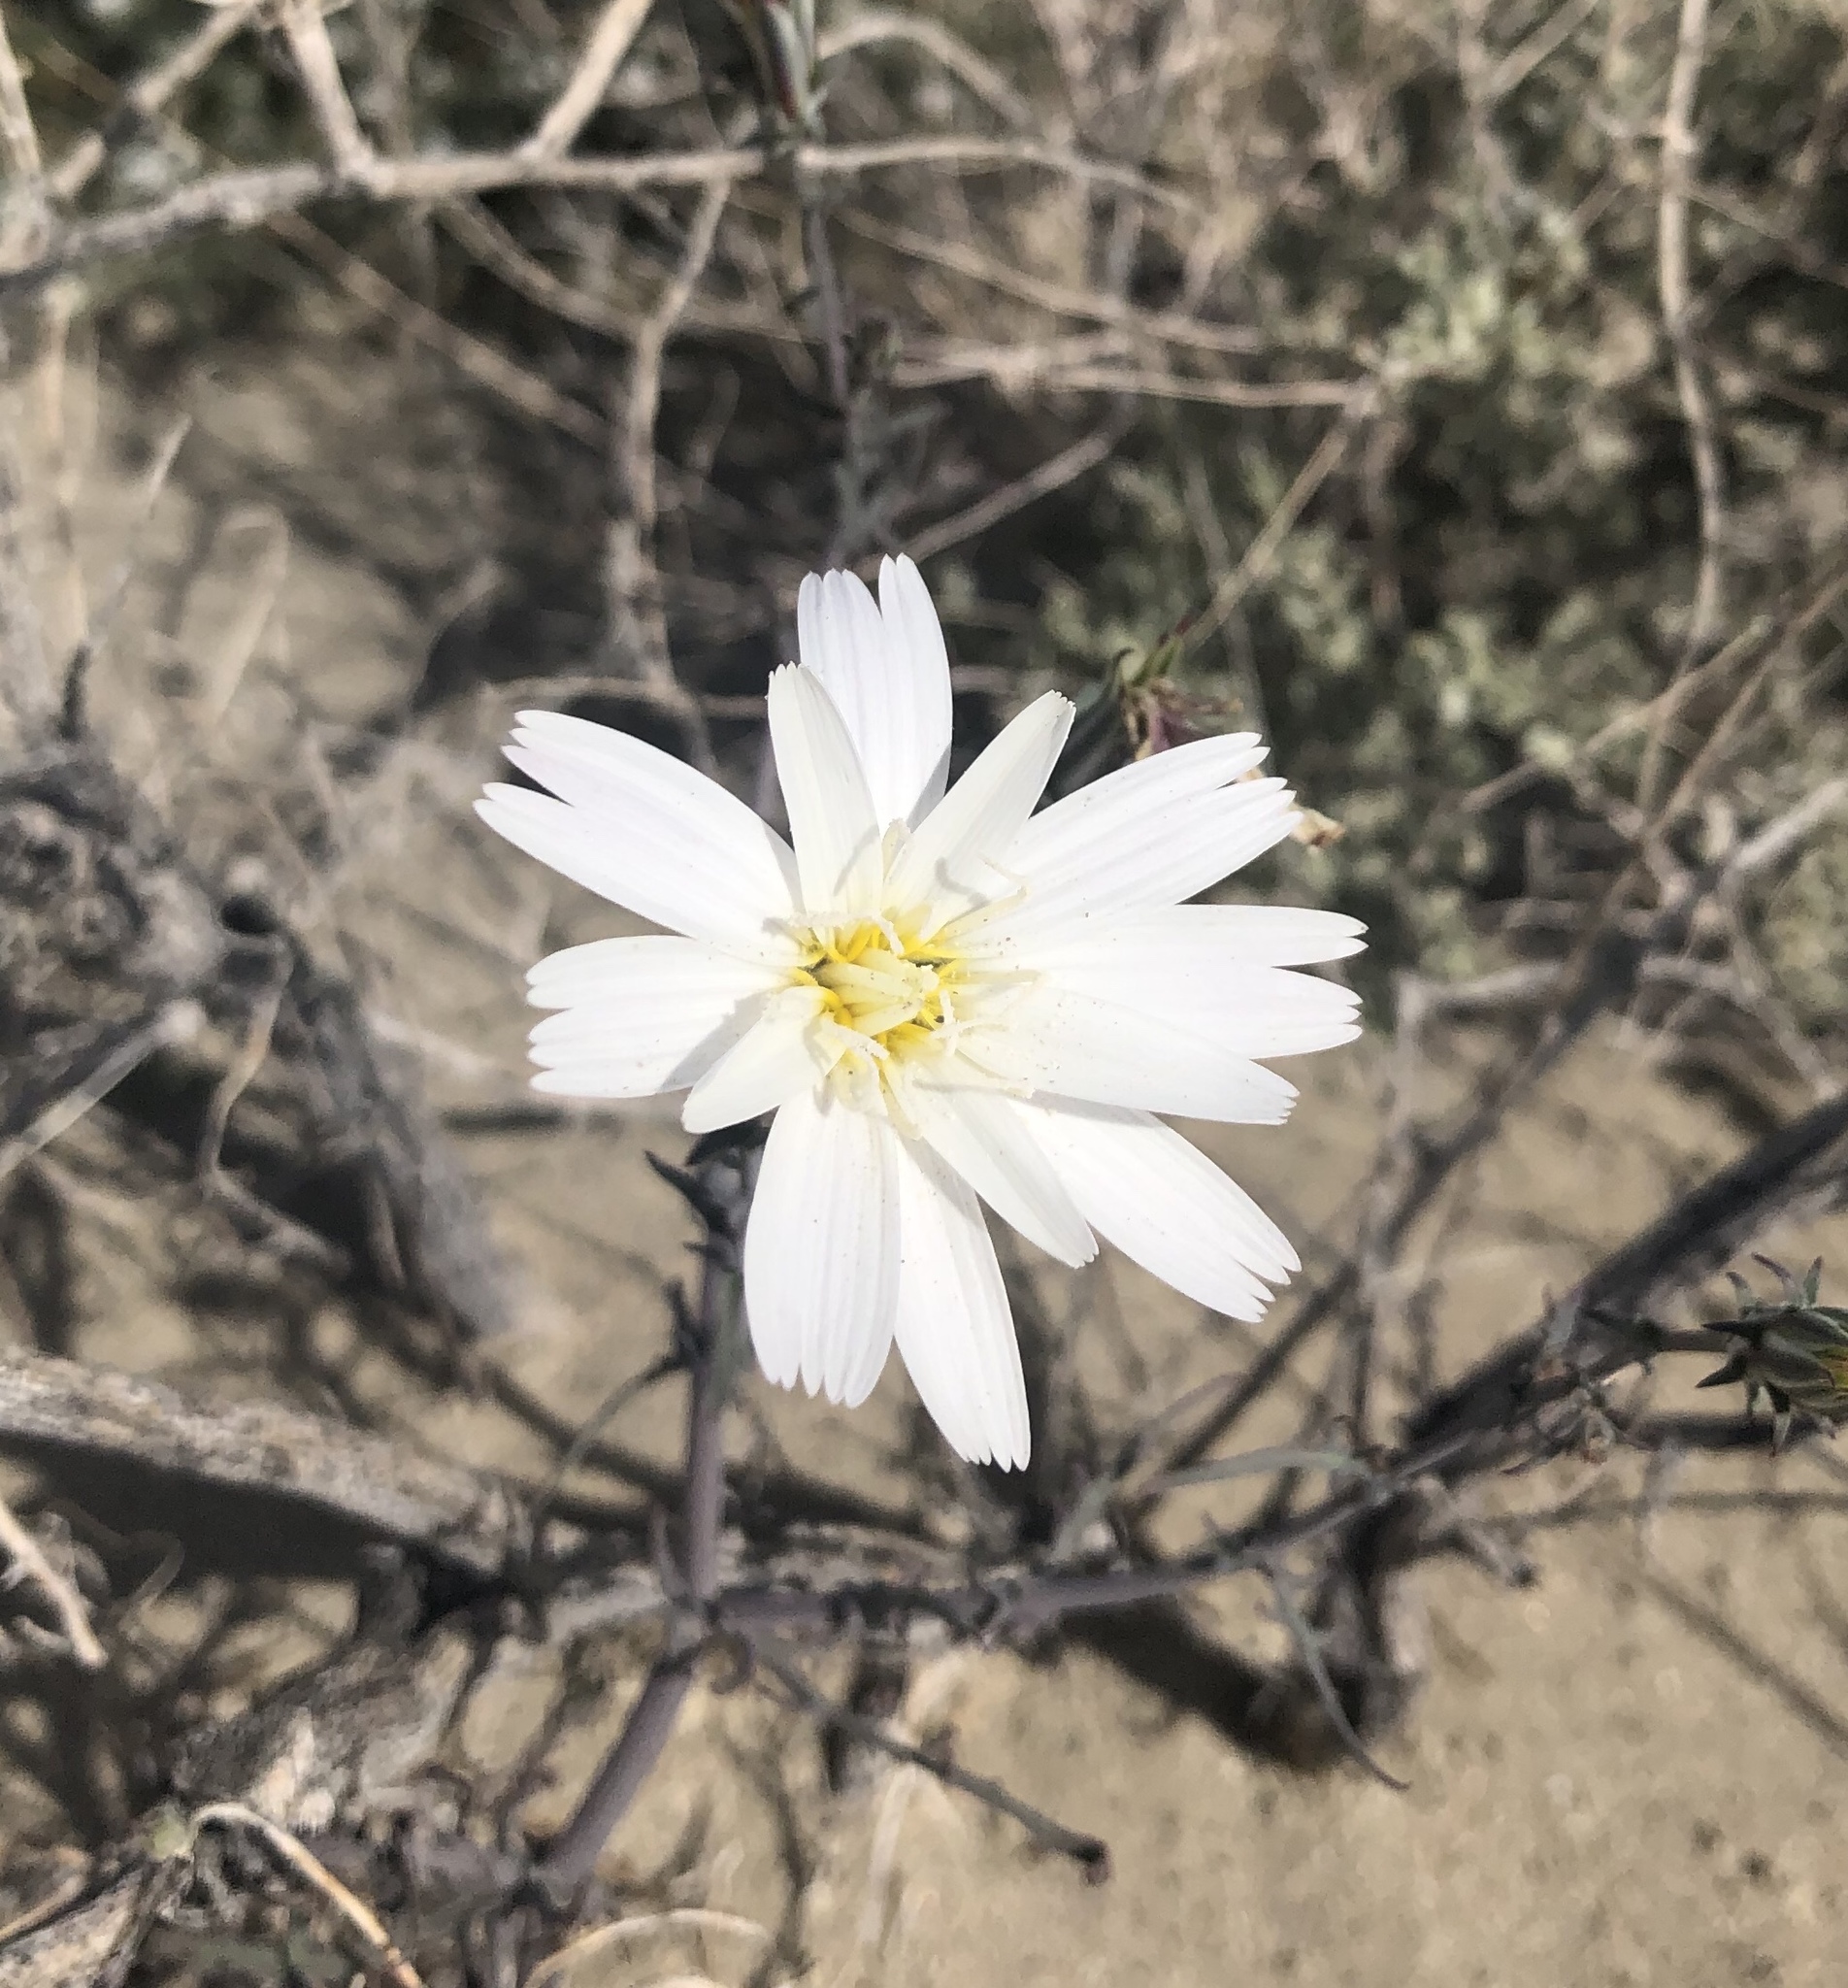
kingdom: Plantae
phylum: Tracheophyta
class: Magnoliopsida
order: Asterales
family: Asteraceae
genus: Rafinesquia
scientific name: Rafinesquia neomexicana
